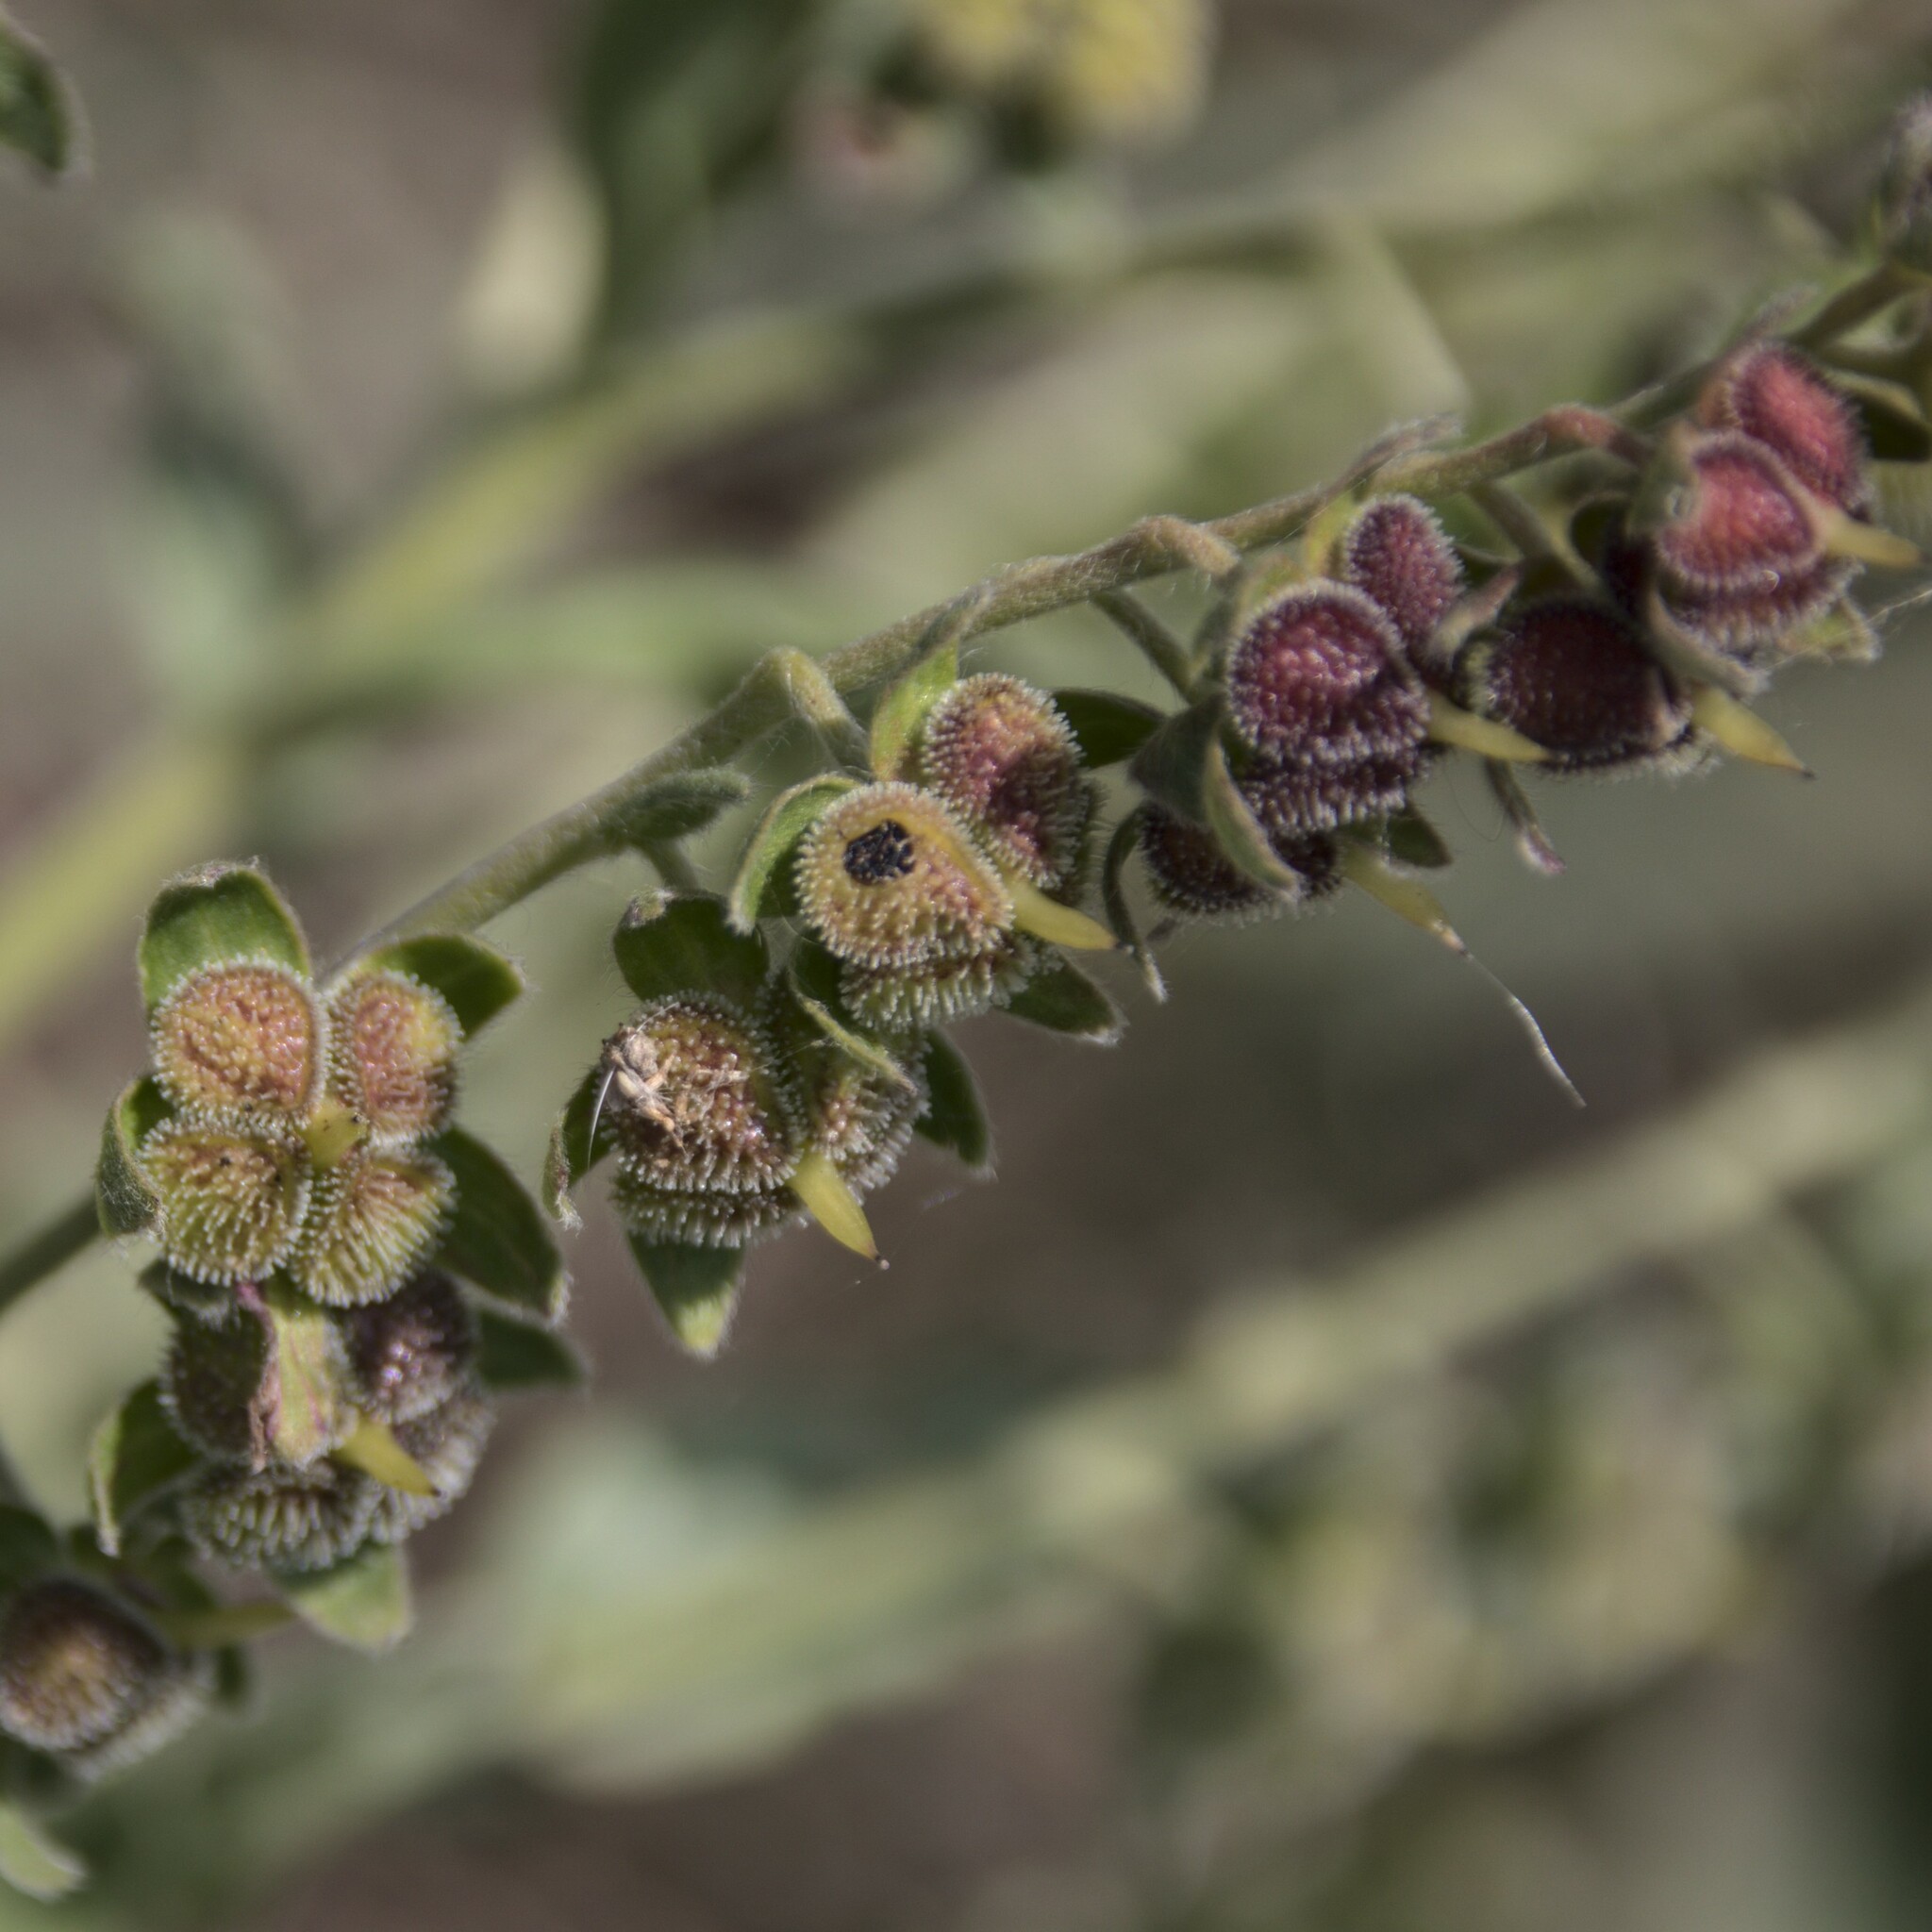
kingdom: Plantae
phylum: Tracheophyta
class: Magnoliopsida
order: Boraginales
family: Boraginaceae
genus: Cynoglossum
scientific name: Cynoglossum officinale
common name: Hound's-tongue
